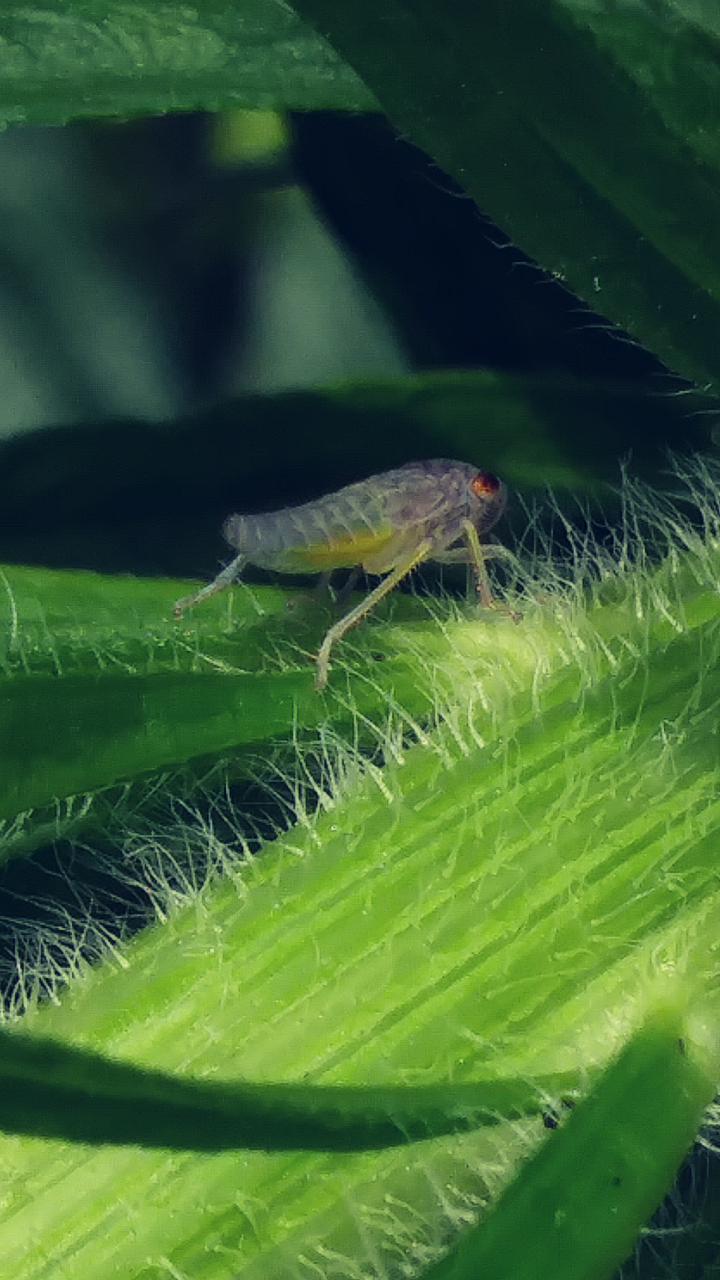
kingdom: Animalia
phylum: Arthropoda
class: Insecta
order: Hemiptera
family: Cicadellidae
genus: Oncometopia
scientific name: Oncometopia orbona
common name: Broad-headed sharpshooter
